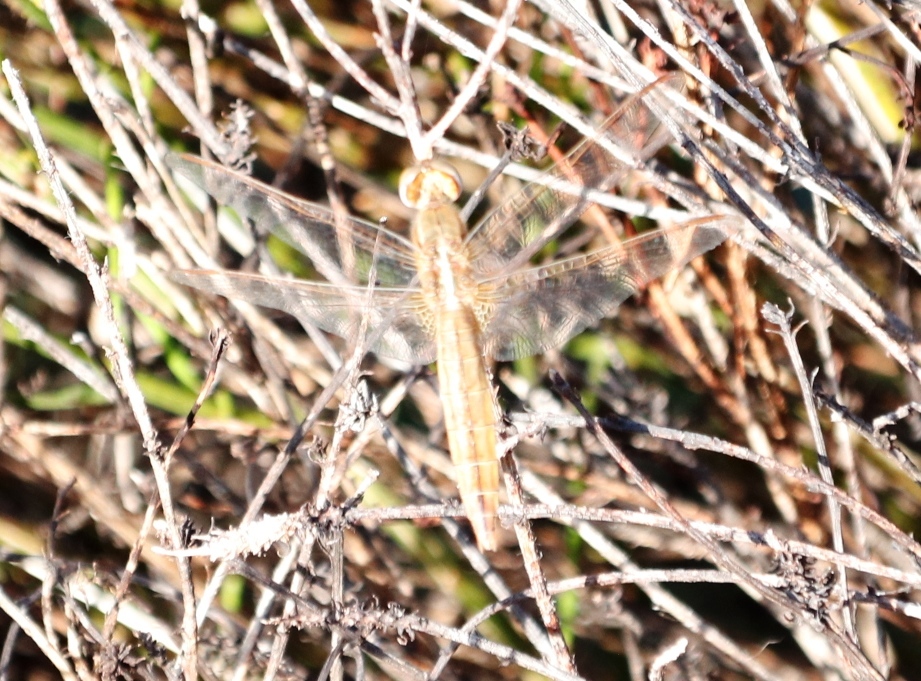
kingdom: Animalia
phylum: Arthropoda
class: Insecta
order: Odonata
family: Libellulidae
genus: Crocothemis
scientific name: Crocothemis erythraea
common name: Scarlet dragonfly
